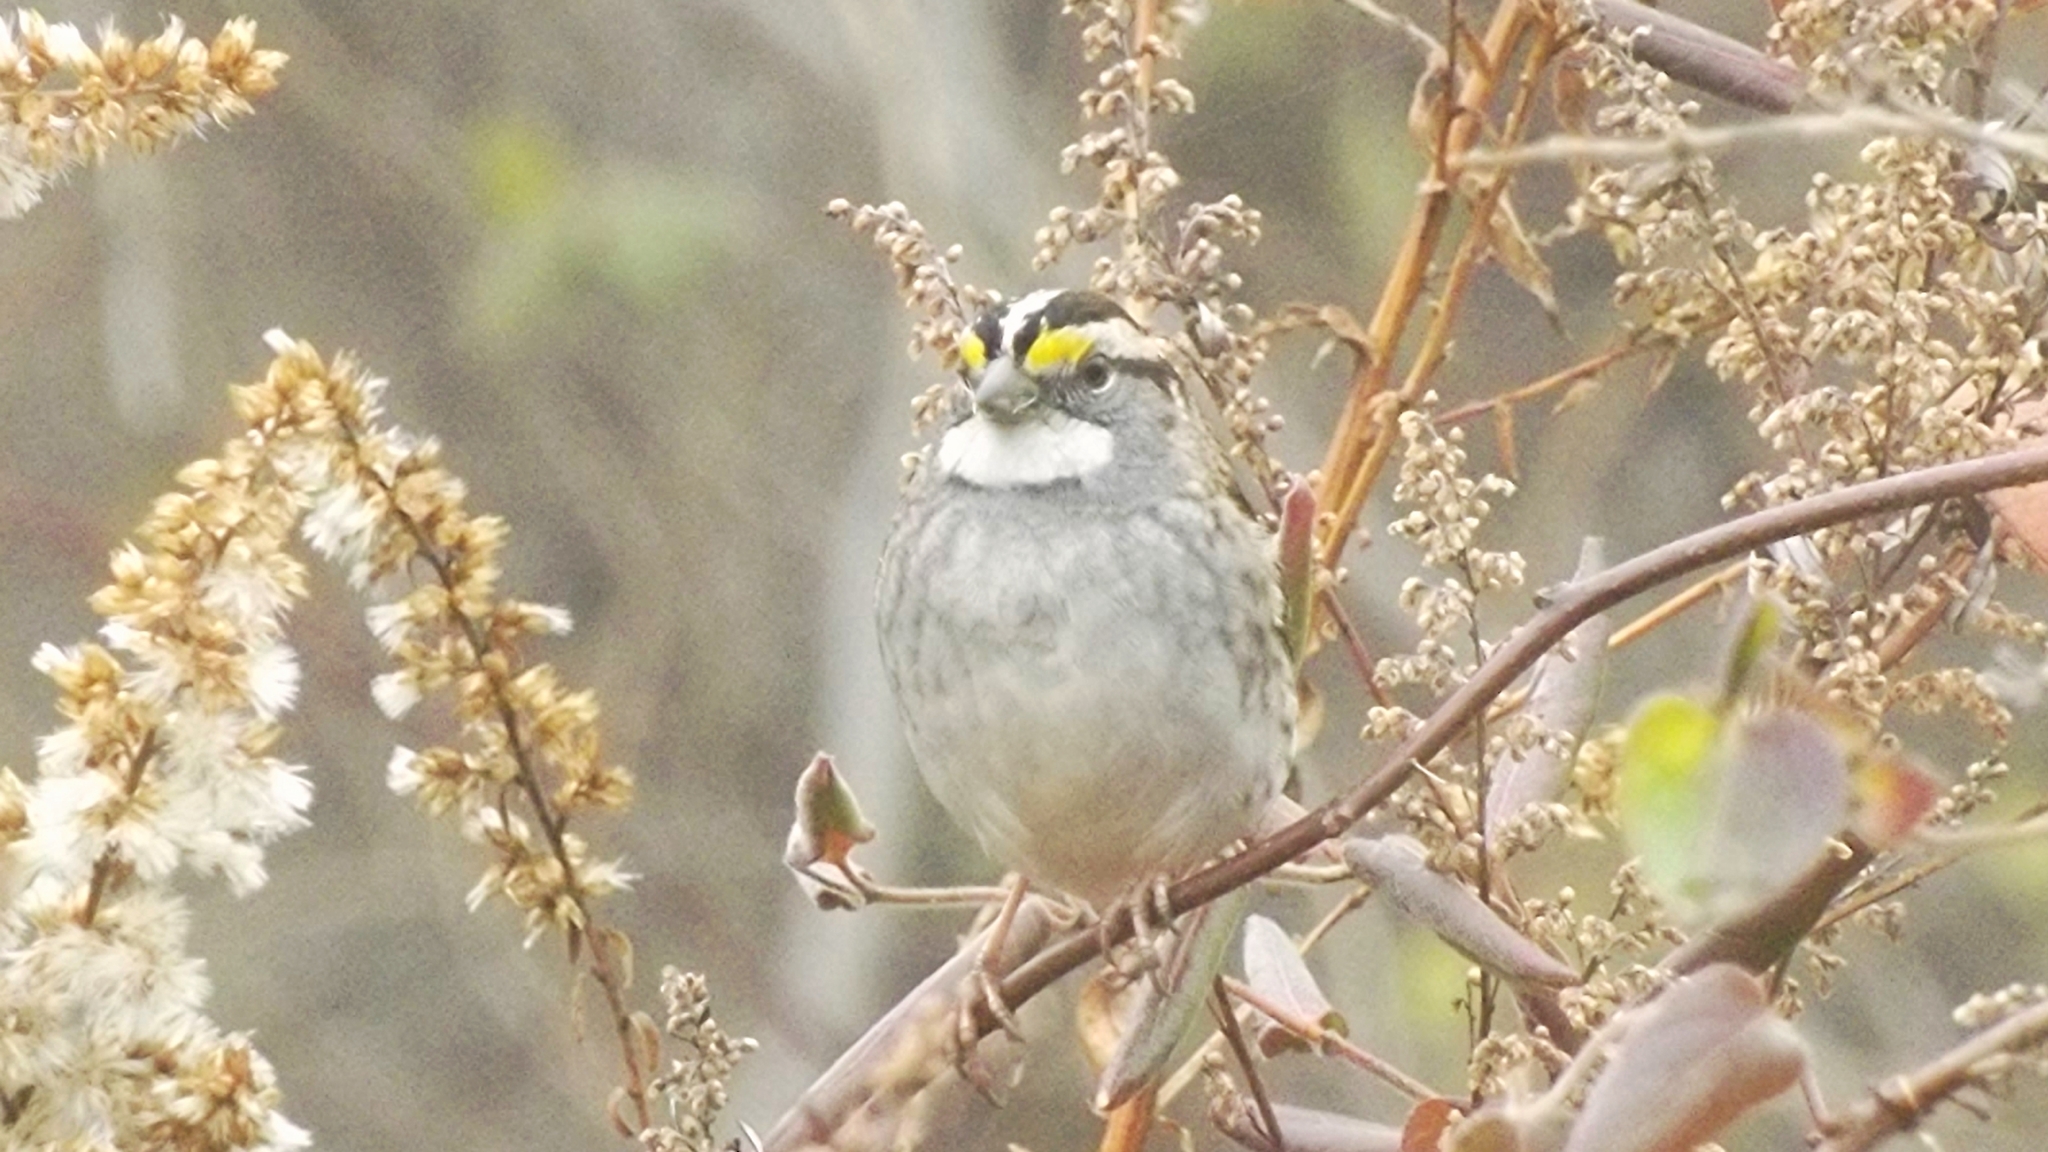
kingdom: Animalia
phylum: Chordata
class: Aves
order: Passeriformes
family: Passerellidae
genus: Zonotrichia
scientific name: Zonotrichia albicollis
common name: White-throated sparrow
